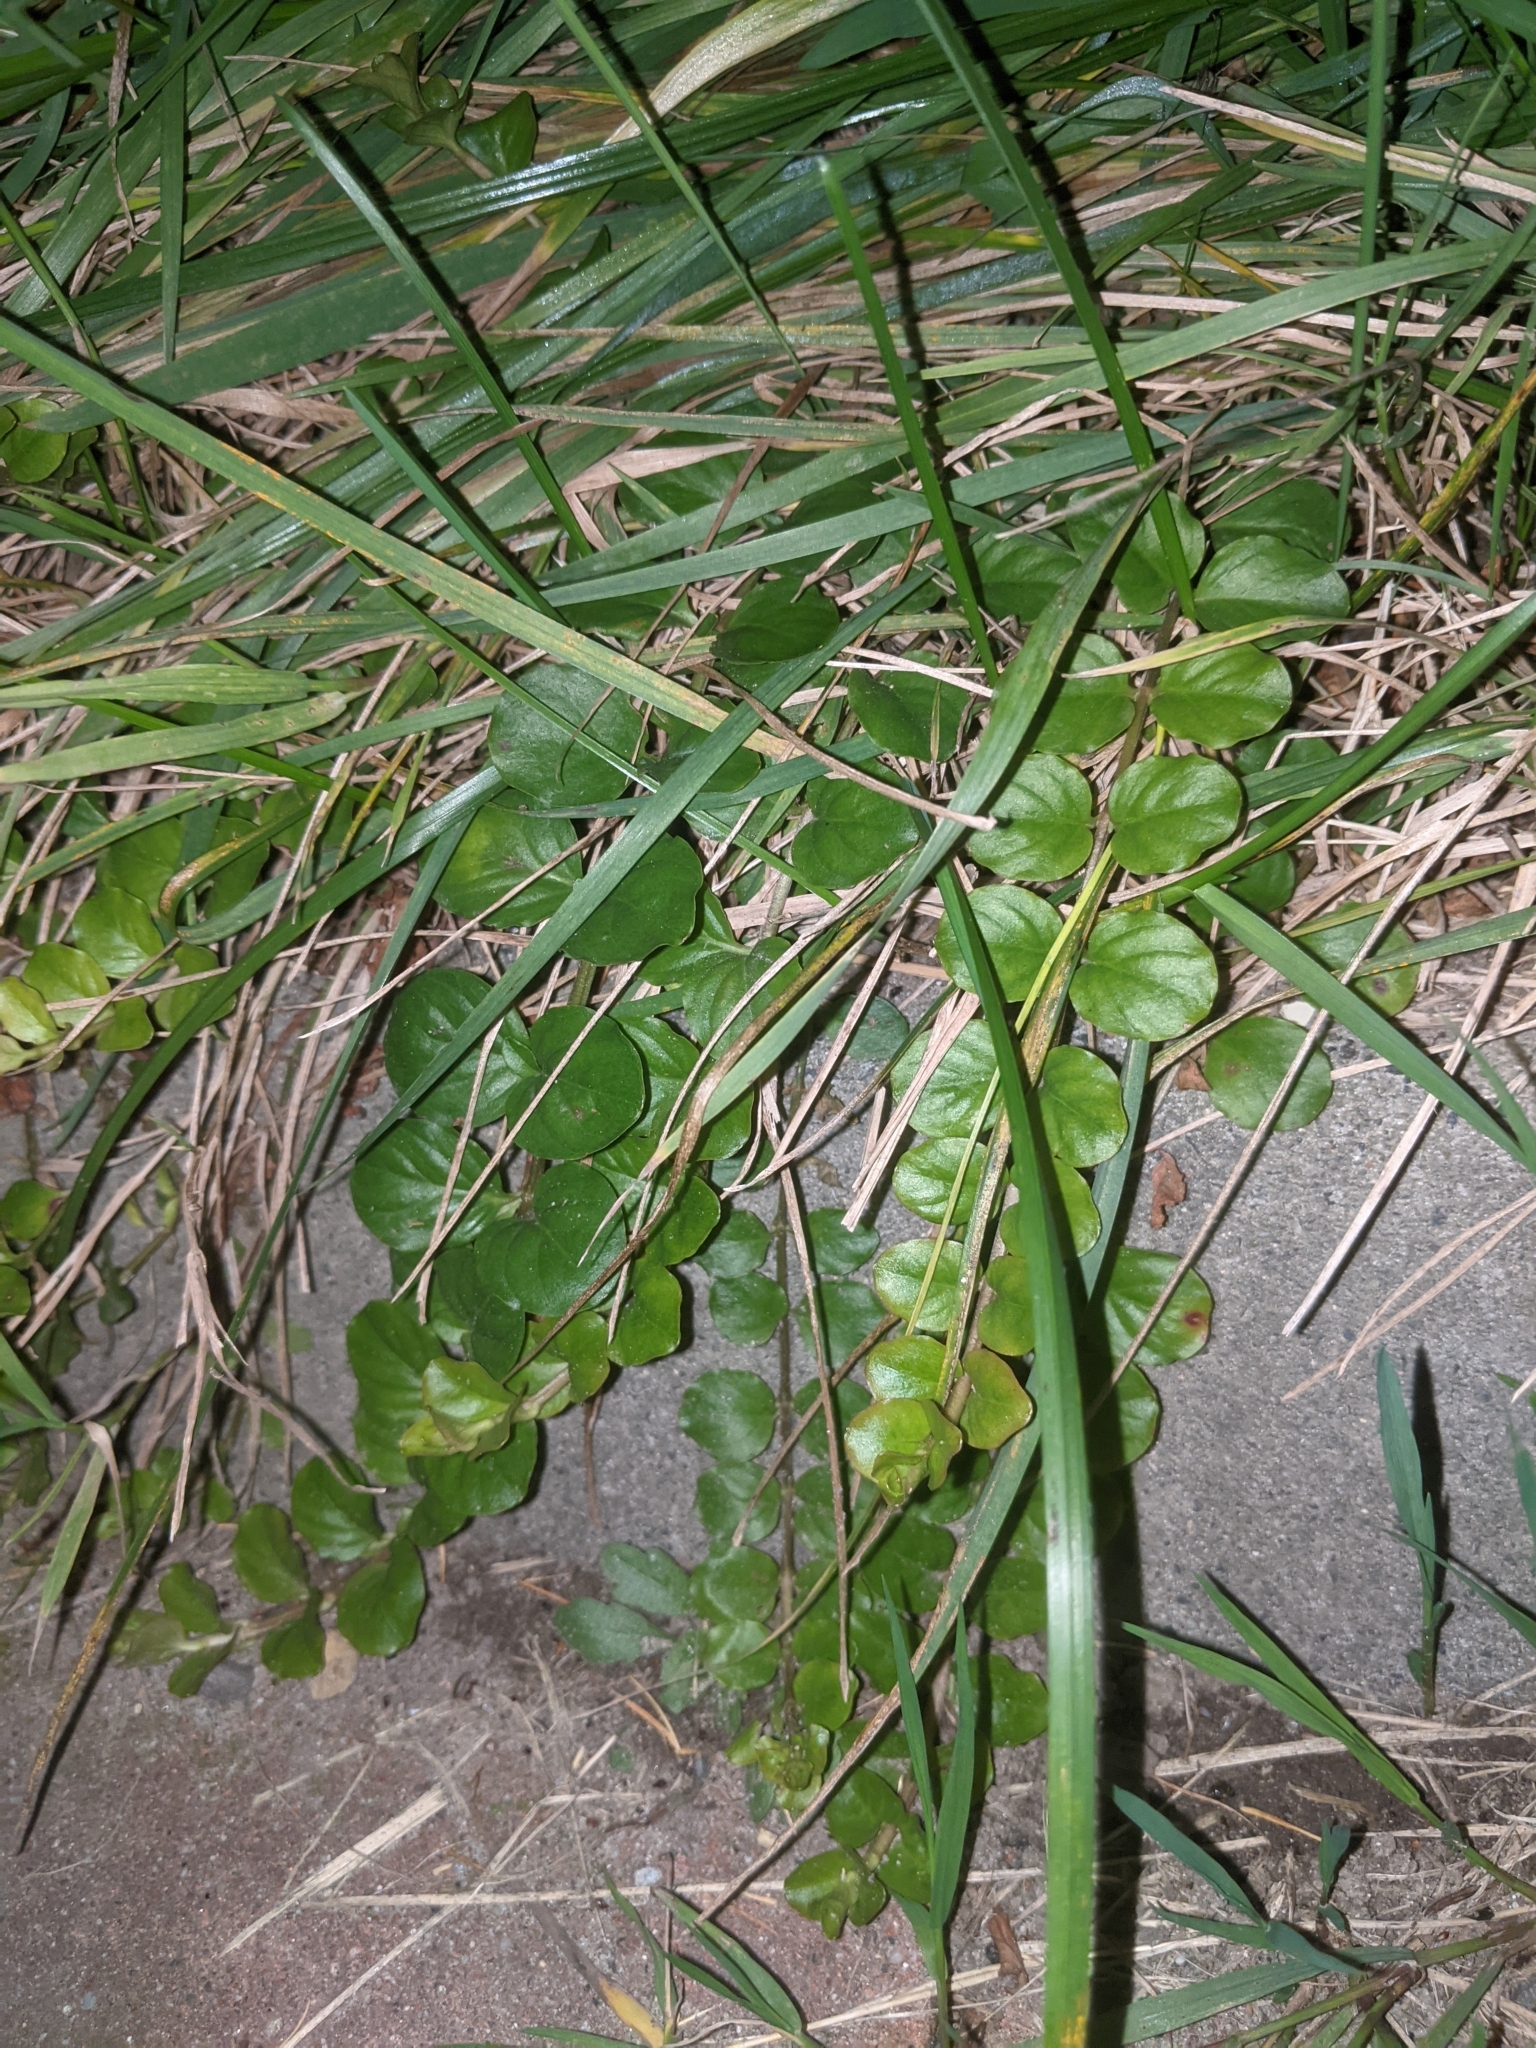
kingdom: Plantae
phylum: Tracheophyta
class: Magnoliopsida
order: Ericales
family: Primulaceae
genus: Lysimachia
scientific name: Lysimachia nummularia
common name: Moneywort
